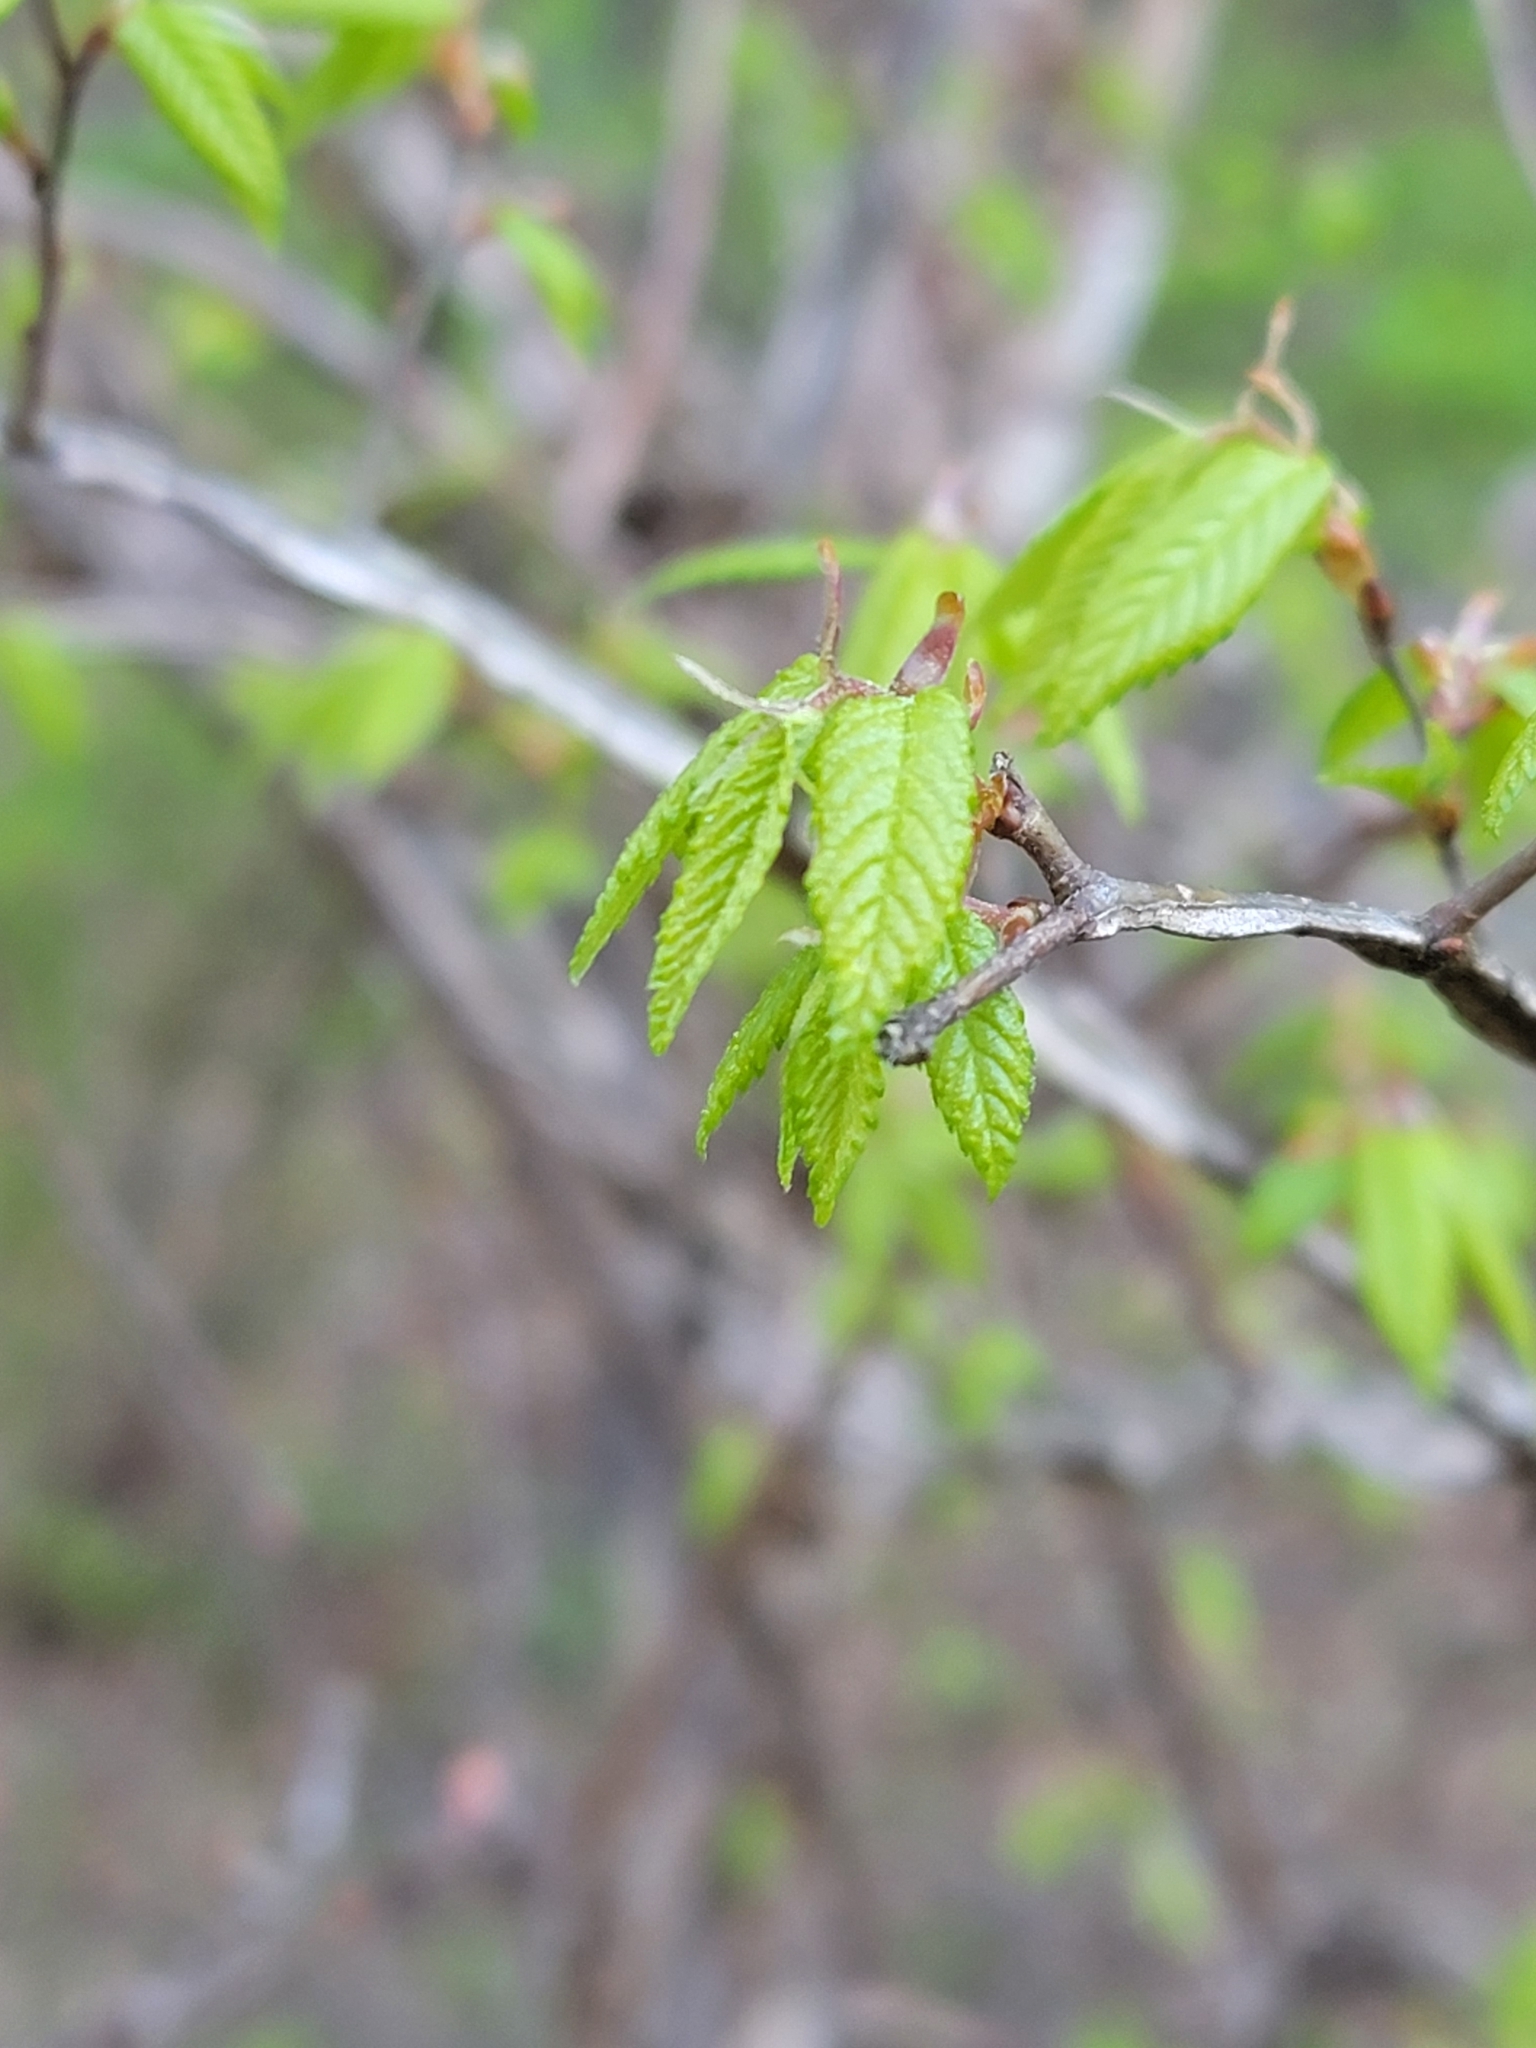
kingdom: Plantae
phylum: Tracheophyta
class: Magnoliopsida
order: Rosales
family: Ulmaceae
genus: Ulmus
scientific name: Ulmus alata
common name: Winged elm
